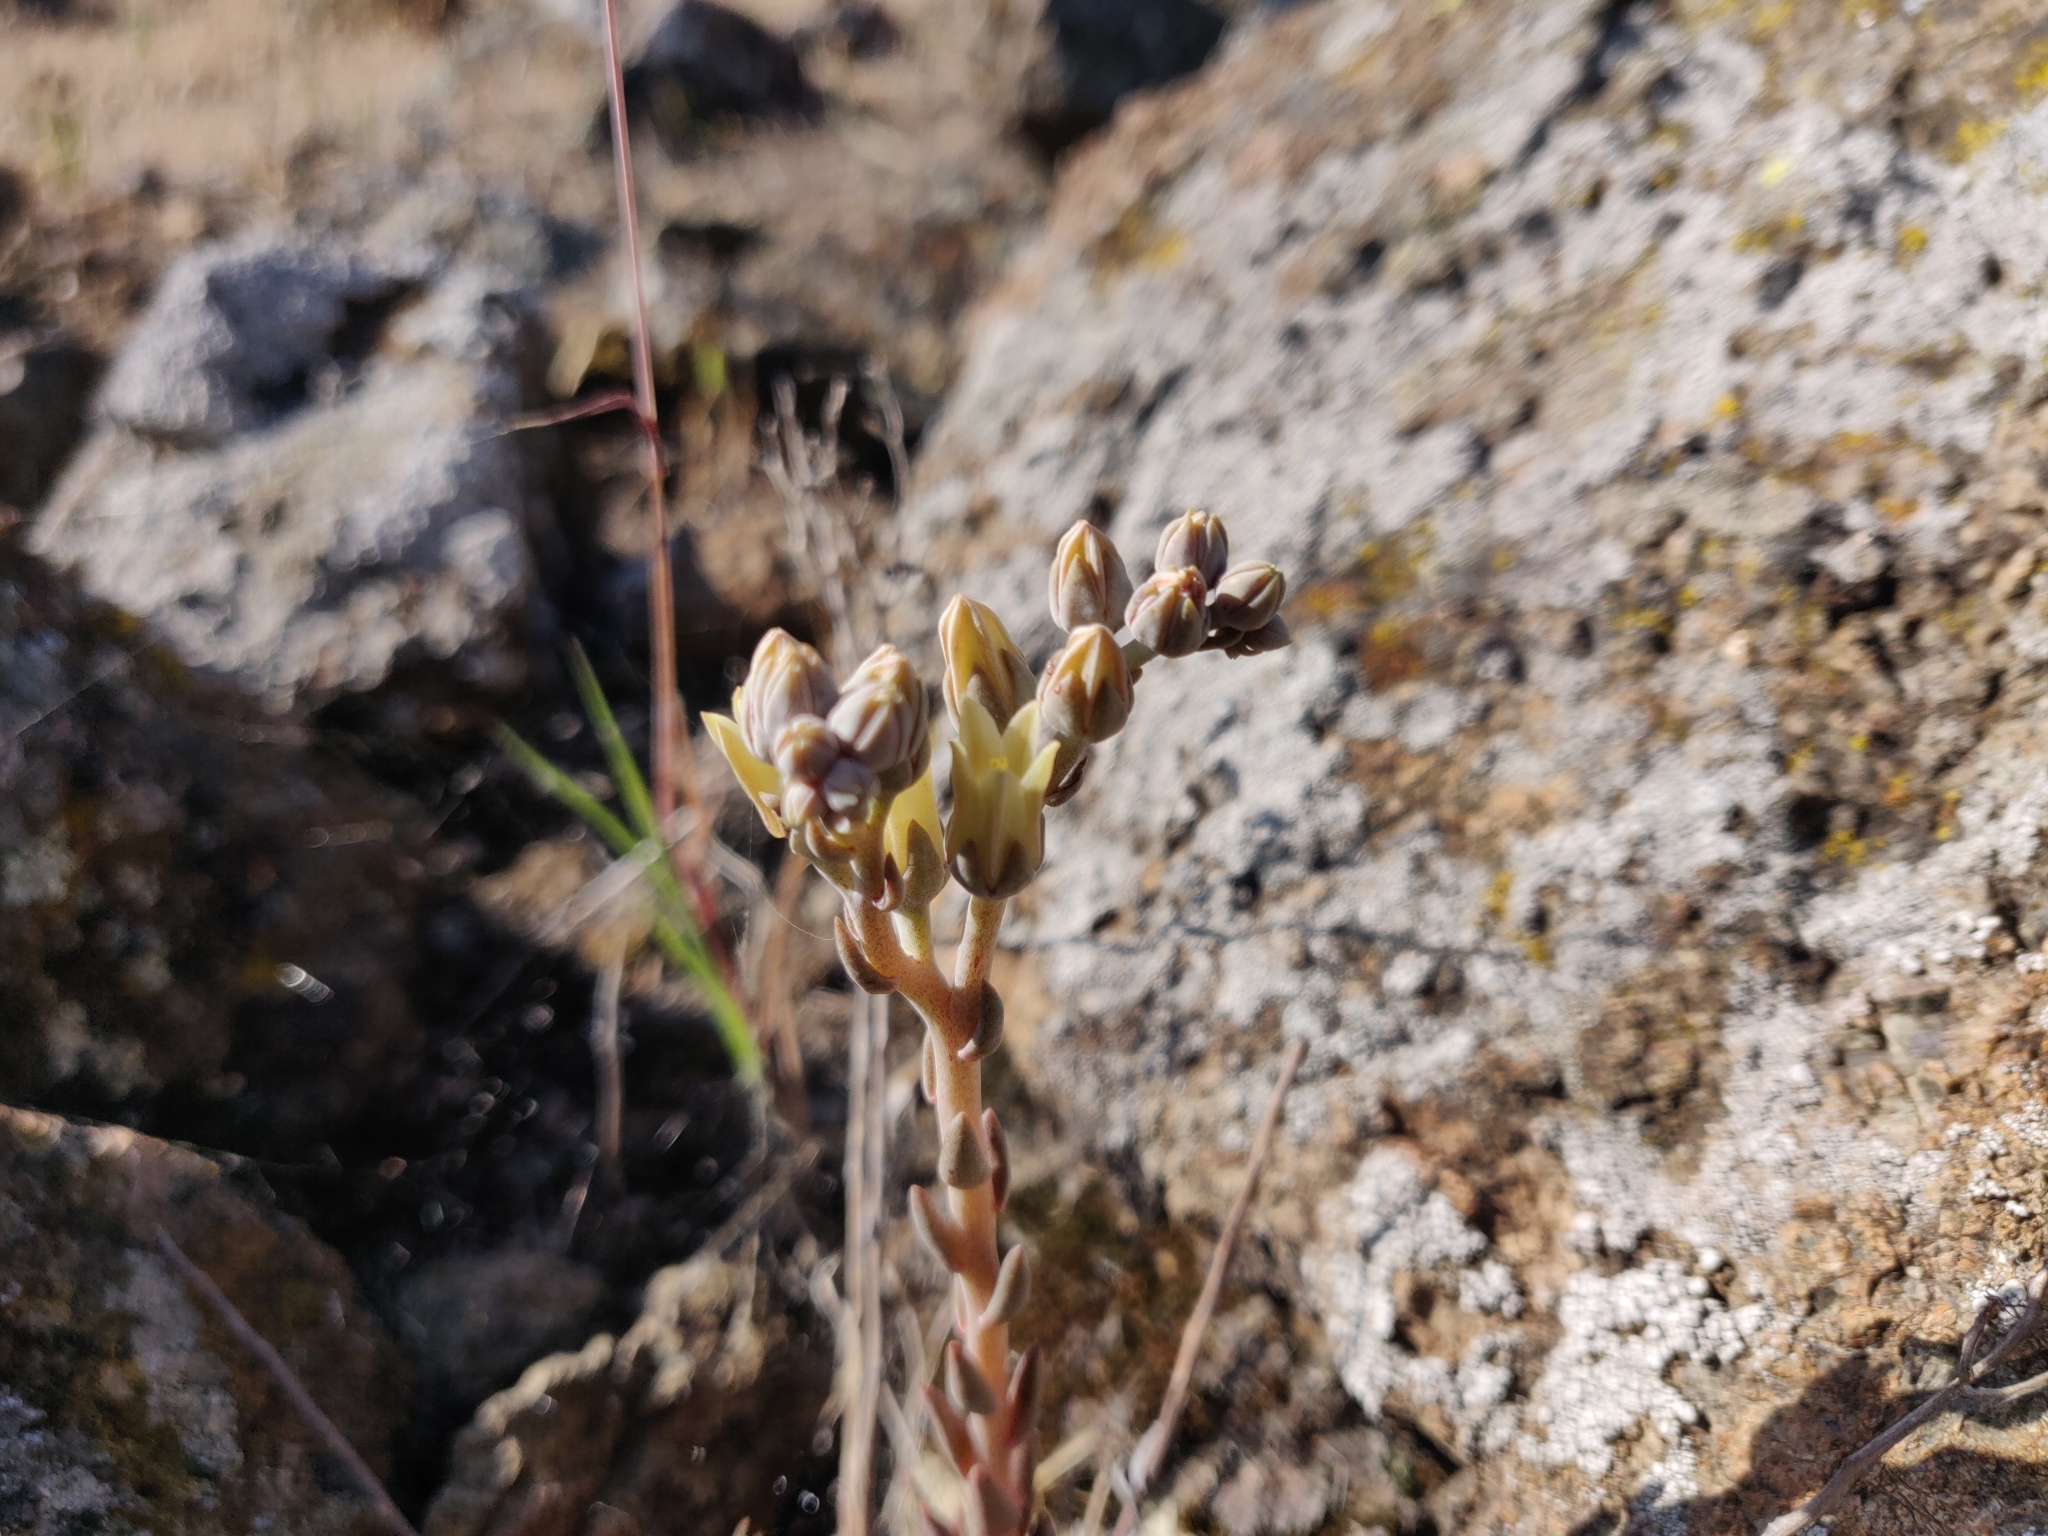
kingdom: Plantae
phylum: Tracheophyta
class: Magnoliopsida
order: Saxifragales
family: Crassulaceae
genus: Dudleya
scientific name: Dudleya abramsii
